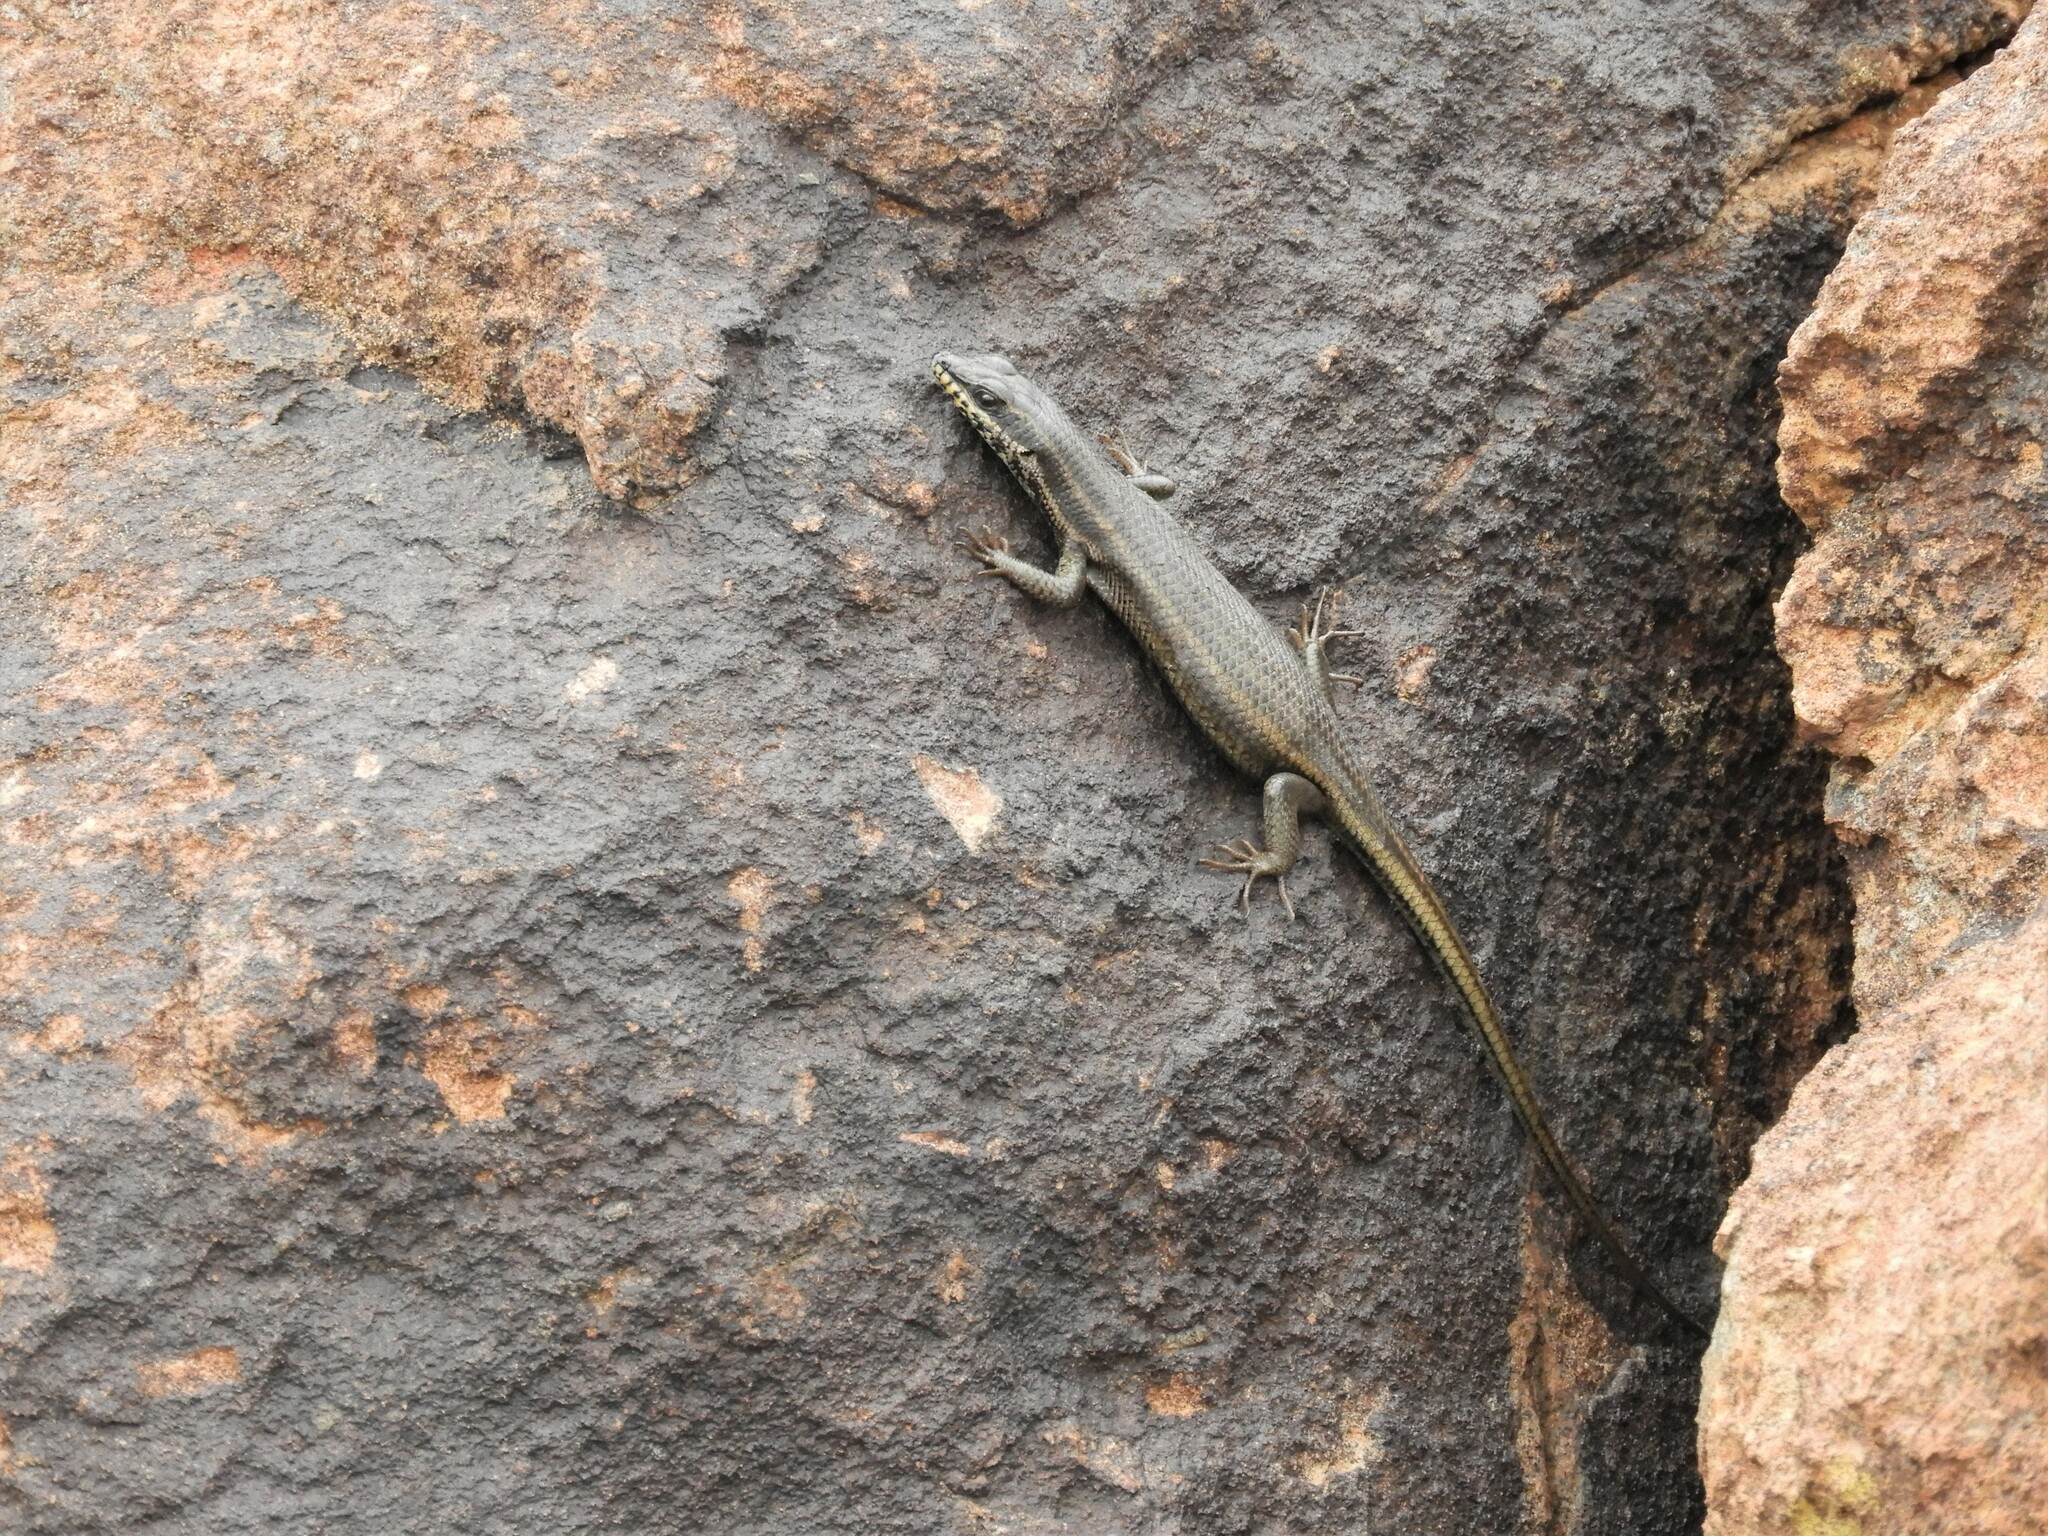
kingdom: Animalia
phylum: Chordata
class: Squamata
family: Scincidae
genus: Trachylepis
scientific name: Trachylepis sulcata
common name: Western rock skink
